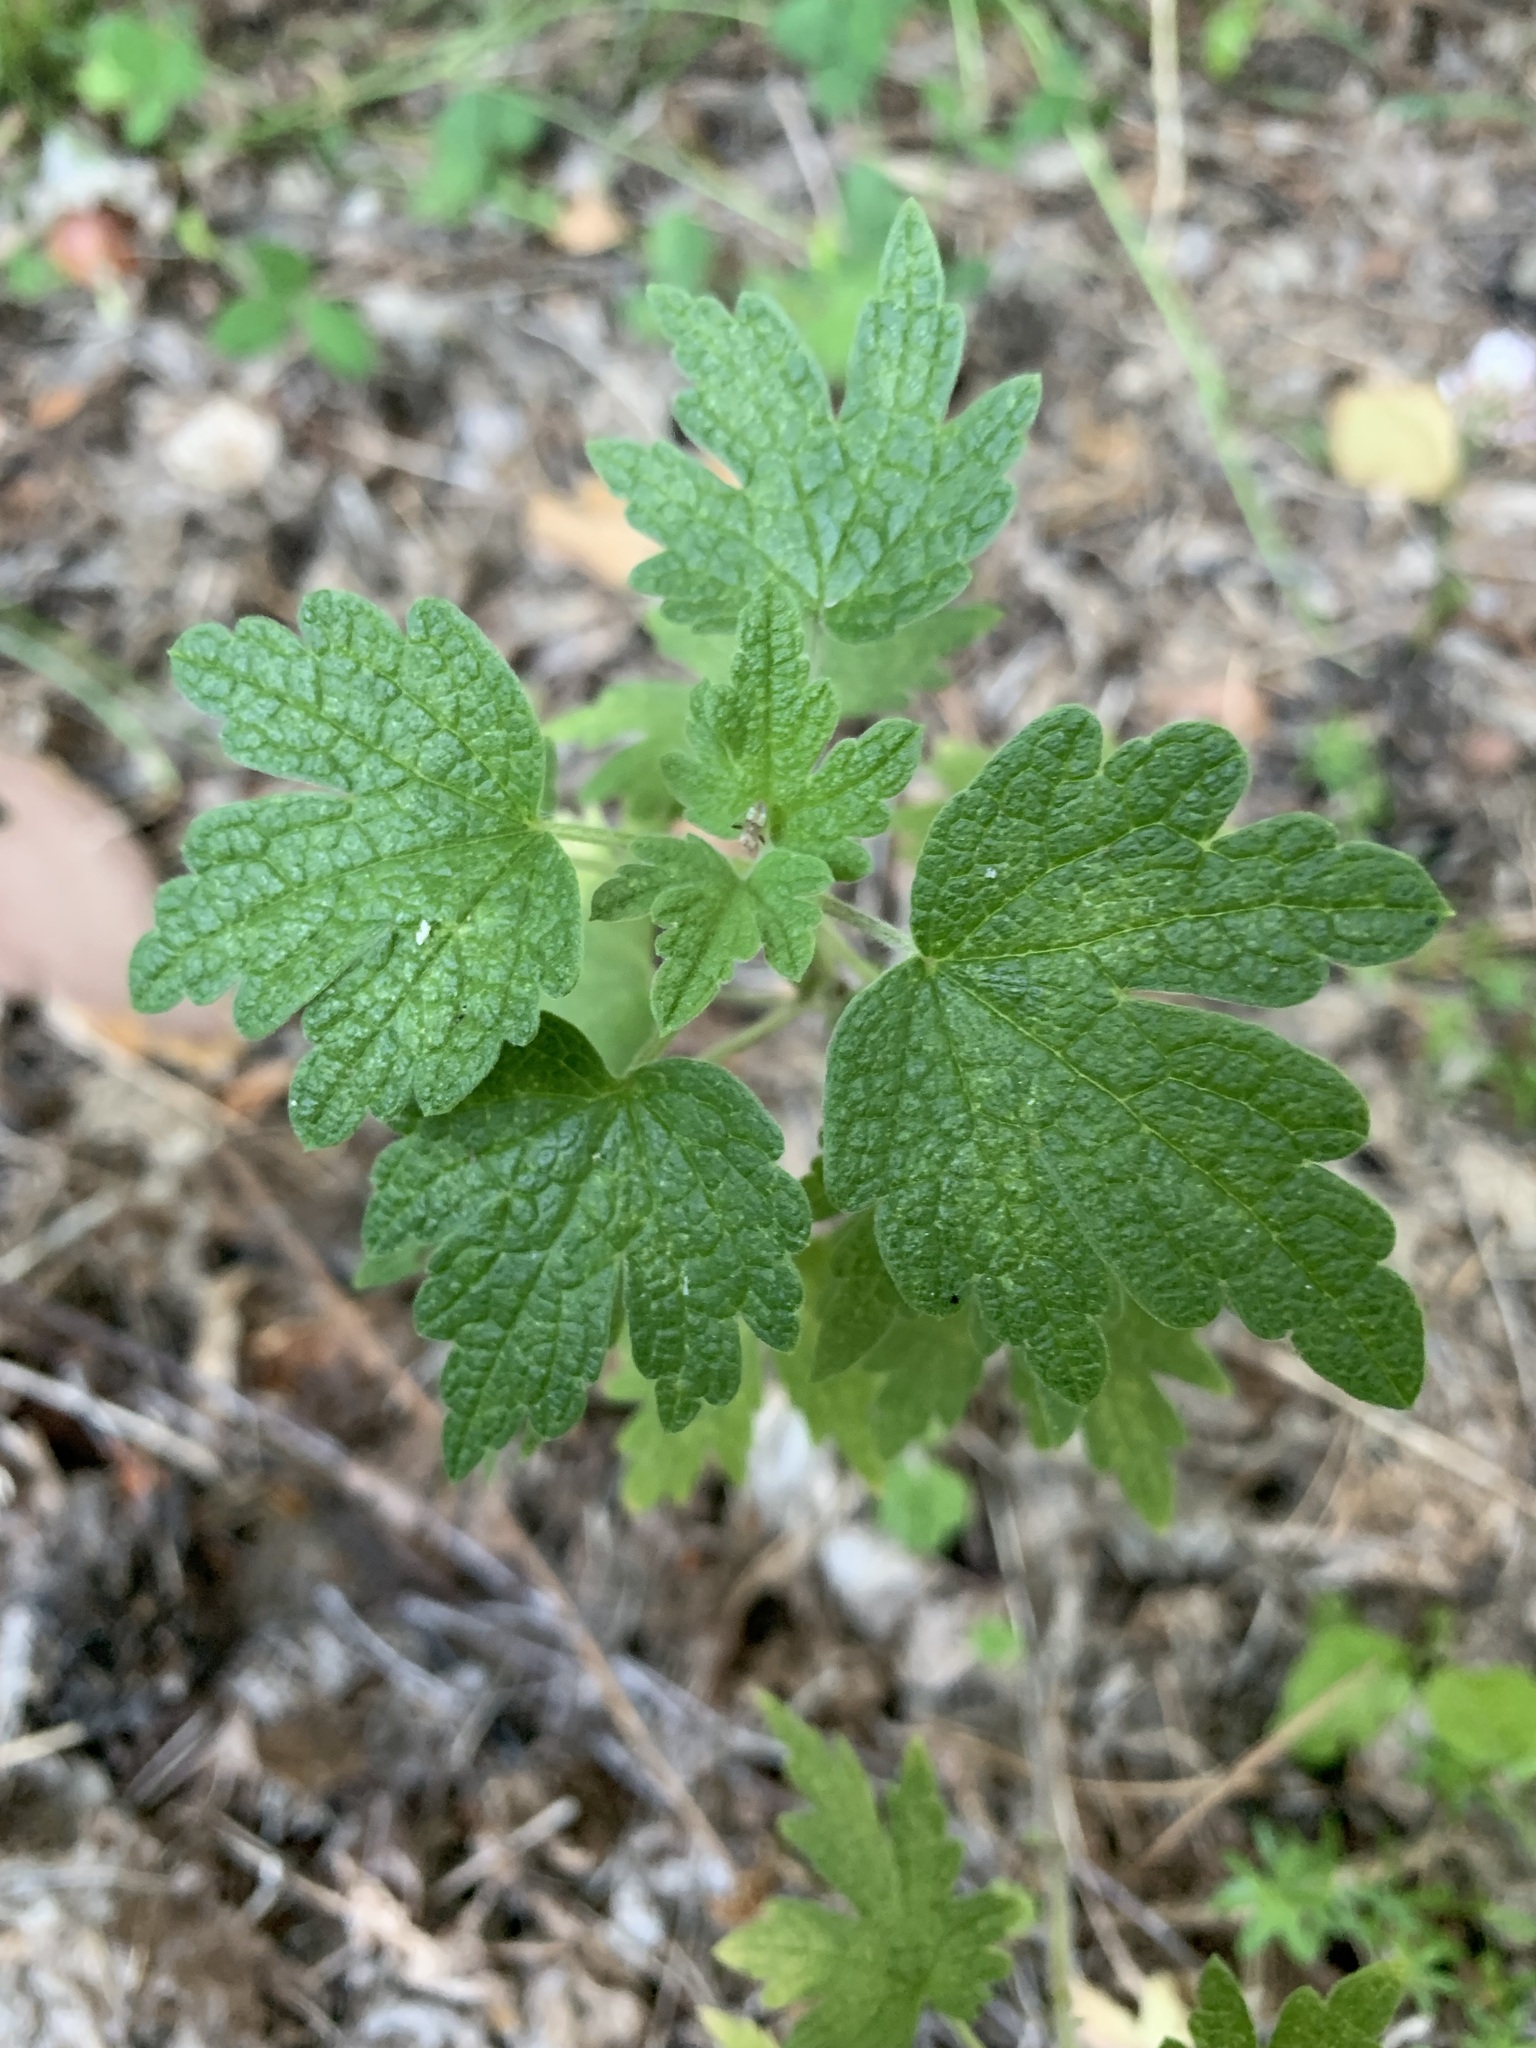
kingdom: Plantae
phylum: Tracheophyta
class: Magnoliopsida
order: Lamiales
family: Lamiaceae
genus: Leonurus
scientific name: Leonurus quinquelobatus
